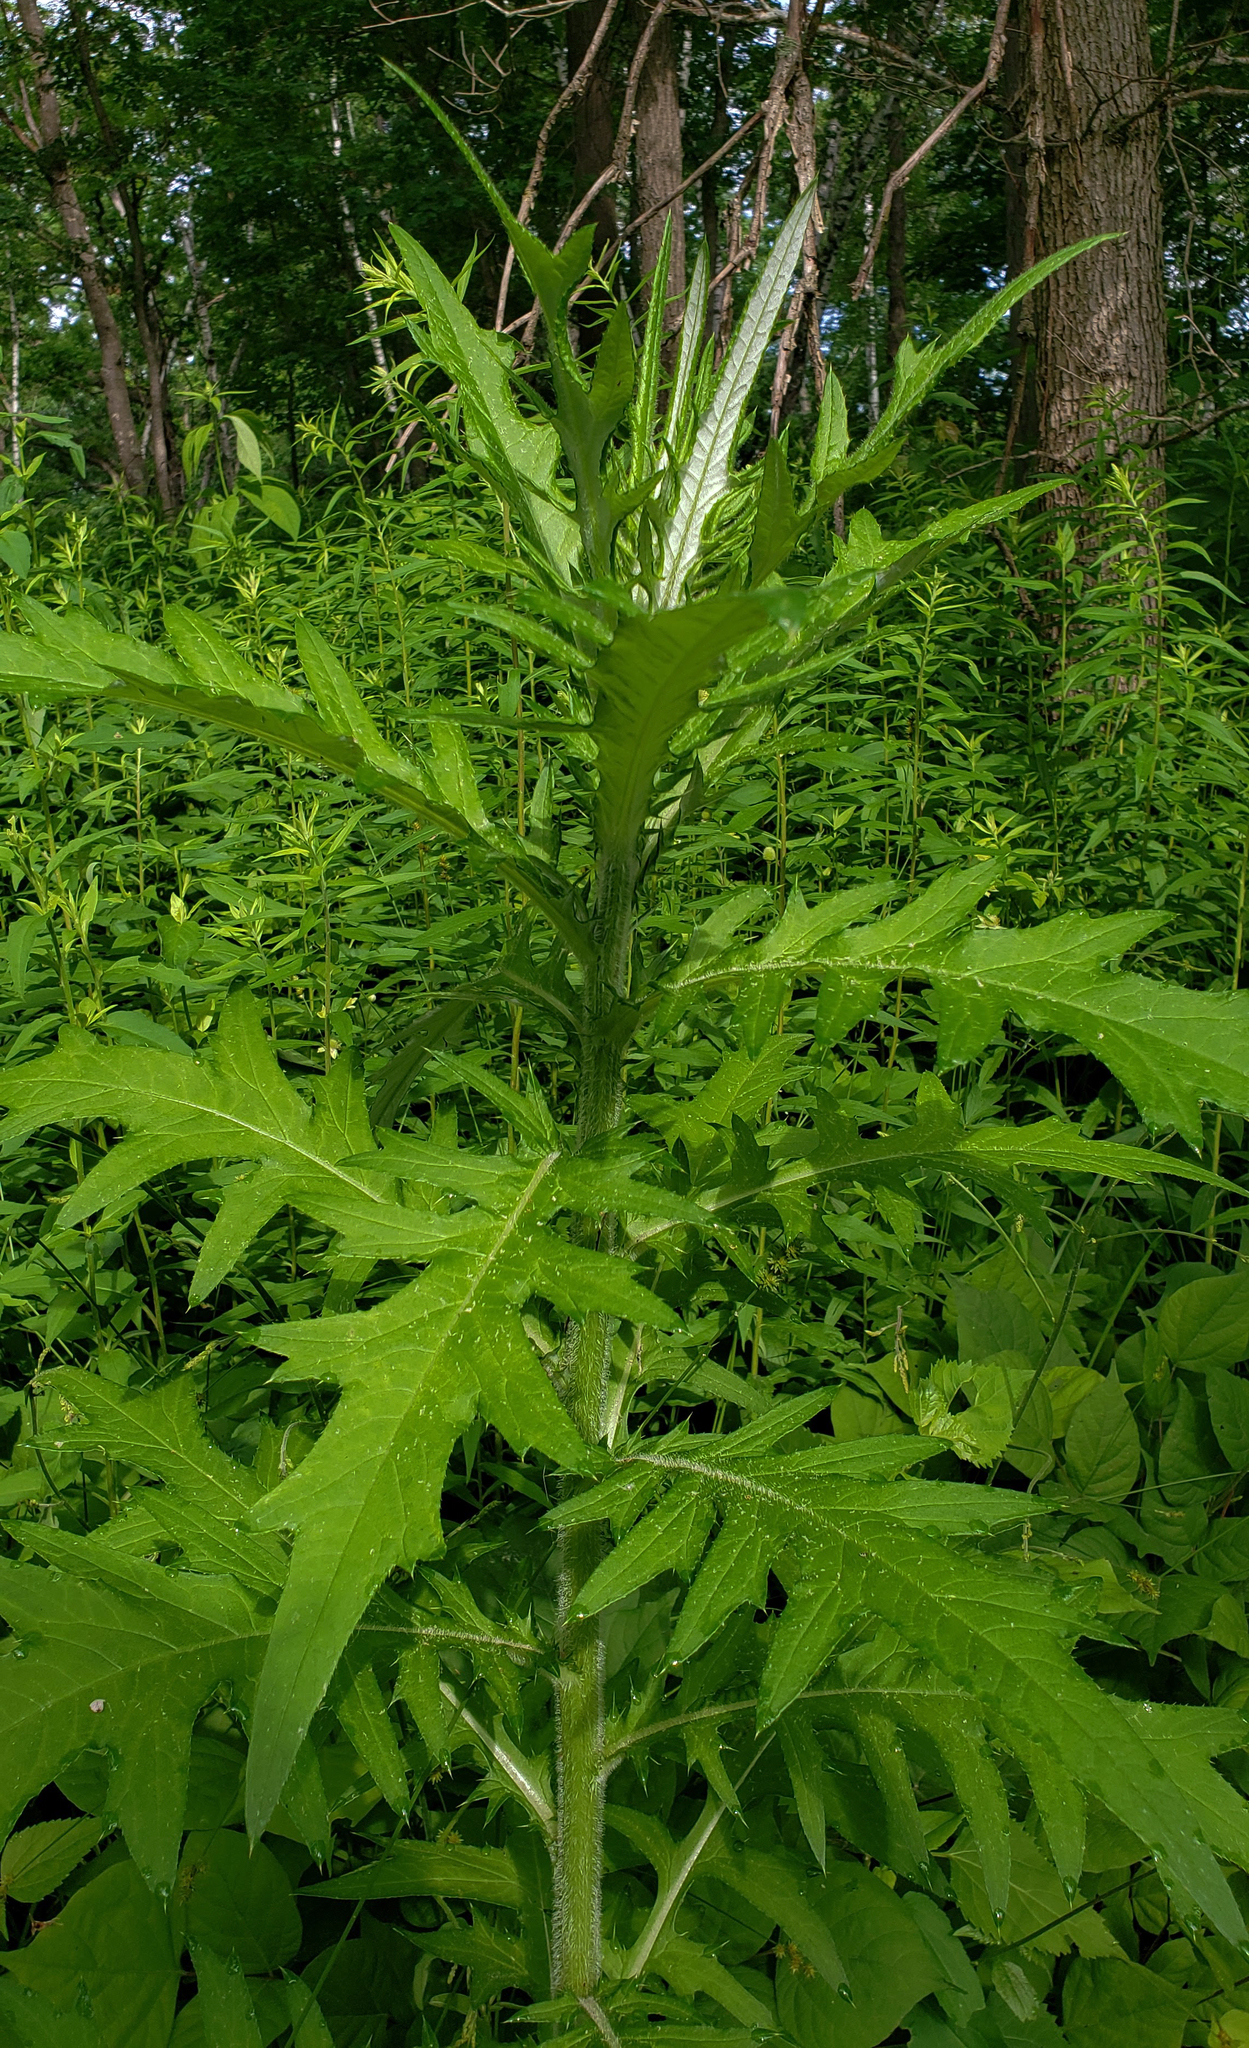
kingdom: Plantae
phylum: Tracheophyta
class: Magnoliopsida
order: Asterales
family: Asteraceae
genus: Cirsium
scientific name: Cirsium discolor
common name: Field thistle
